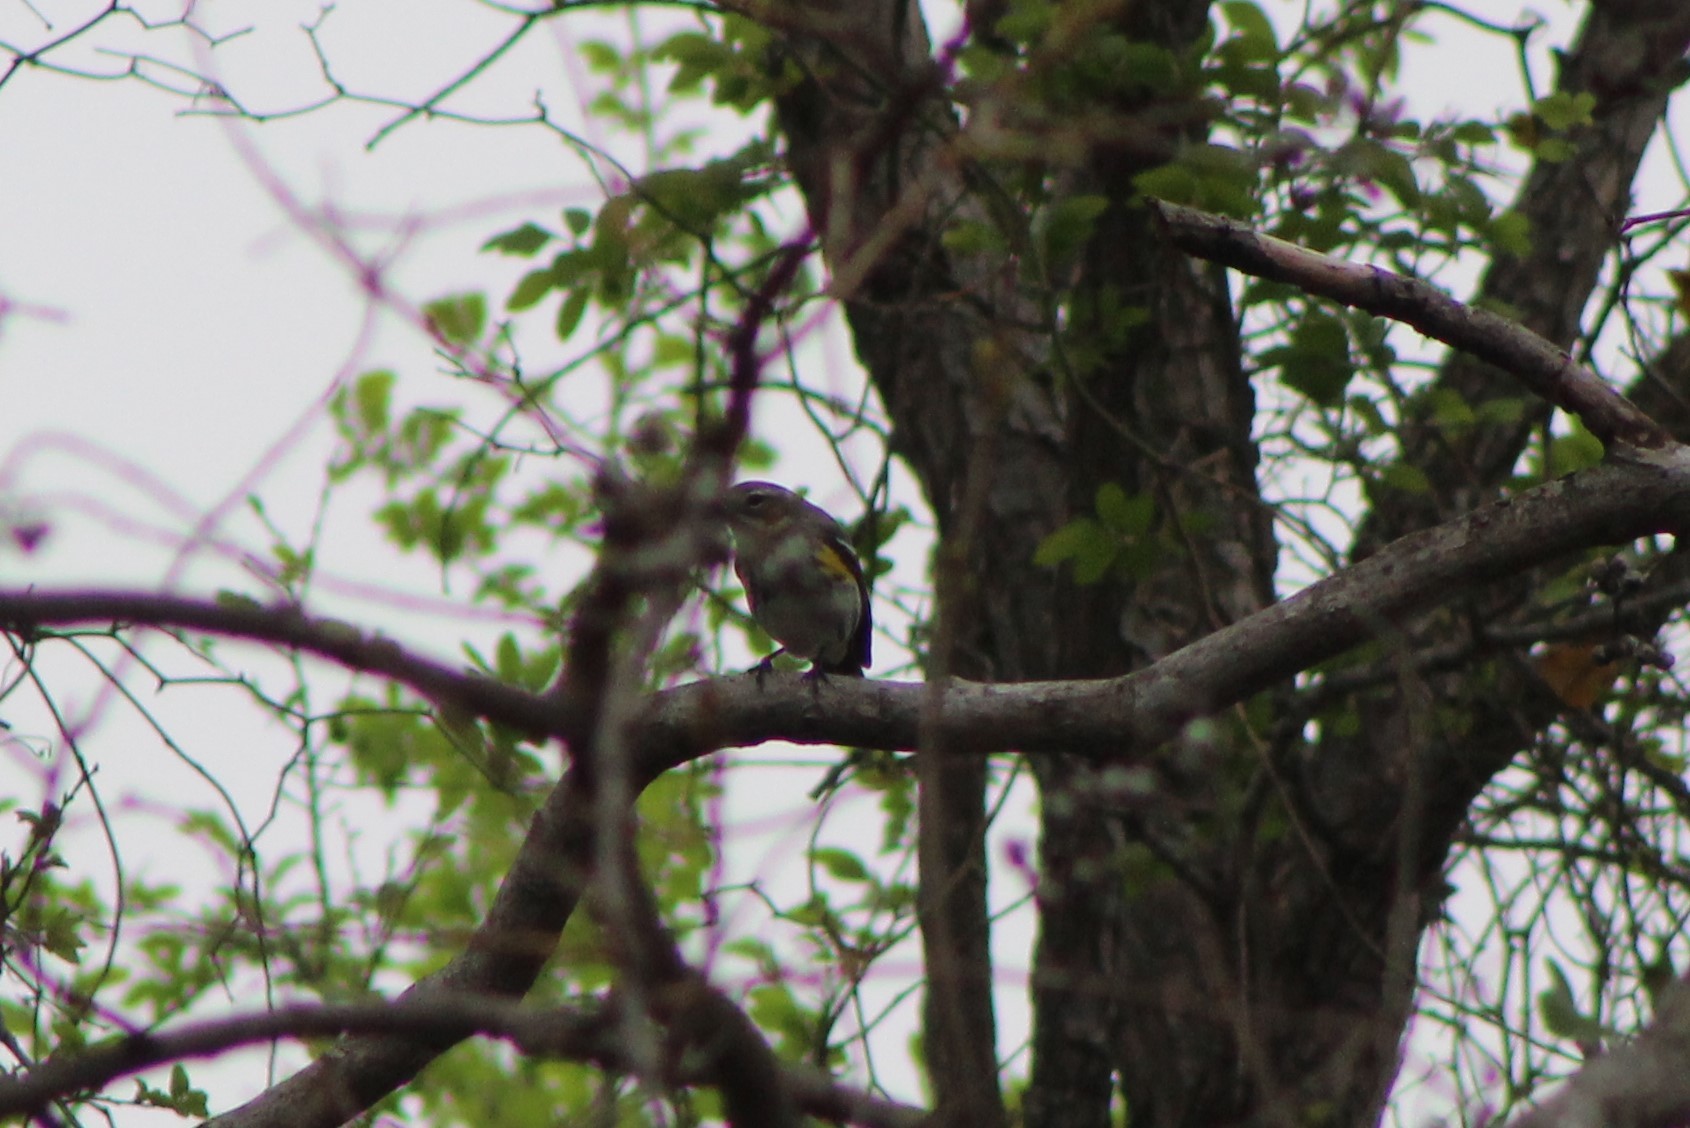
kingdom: Animalia
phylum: Chordata
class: Aves
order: Passeriformes
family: Parulidae
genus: Setophaga
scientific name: Setophaga coronata
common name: Myrtle warbler
